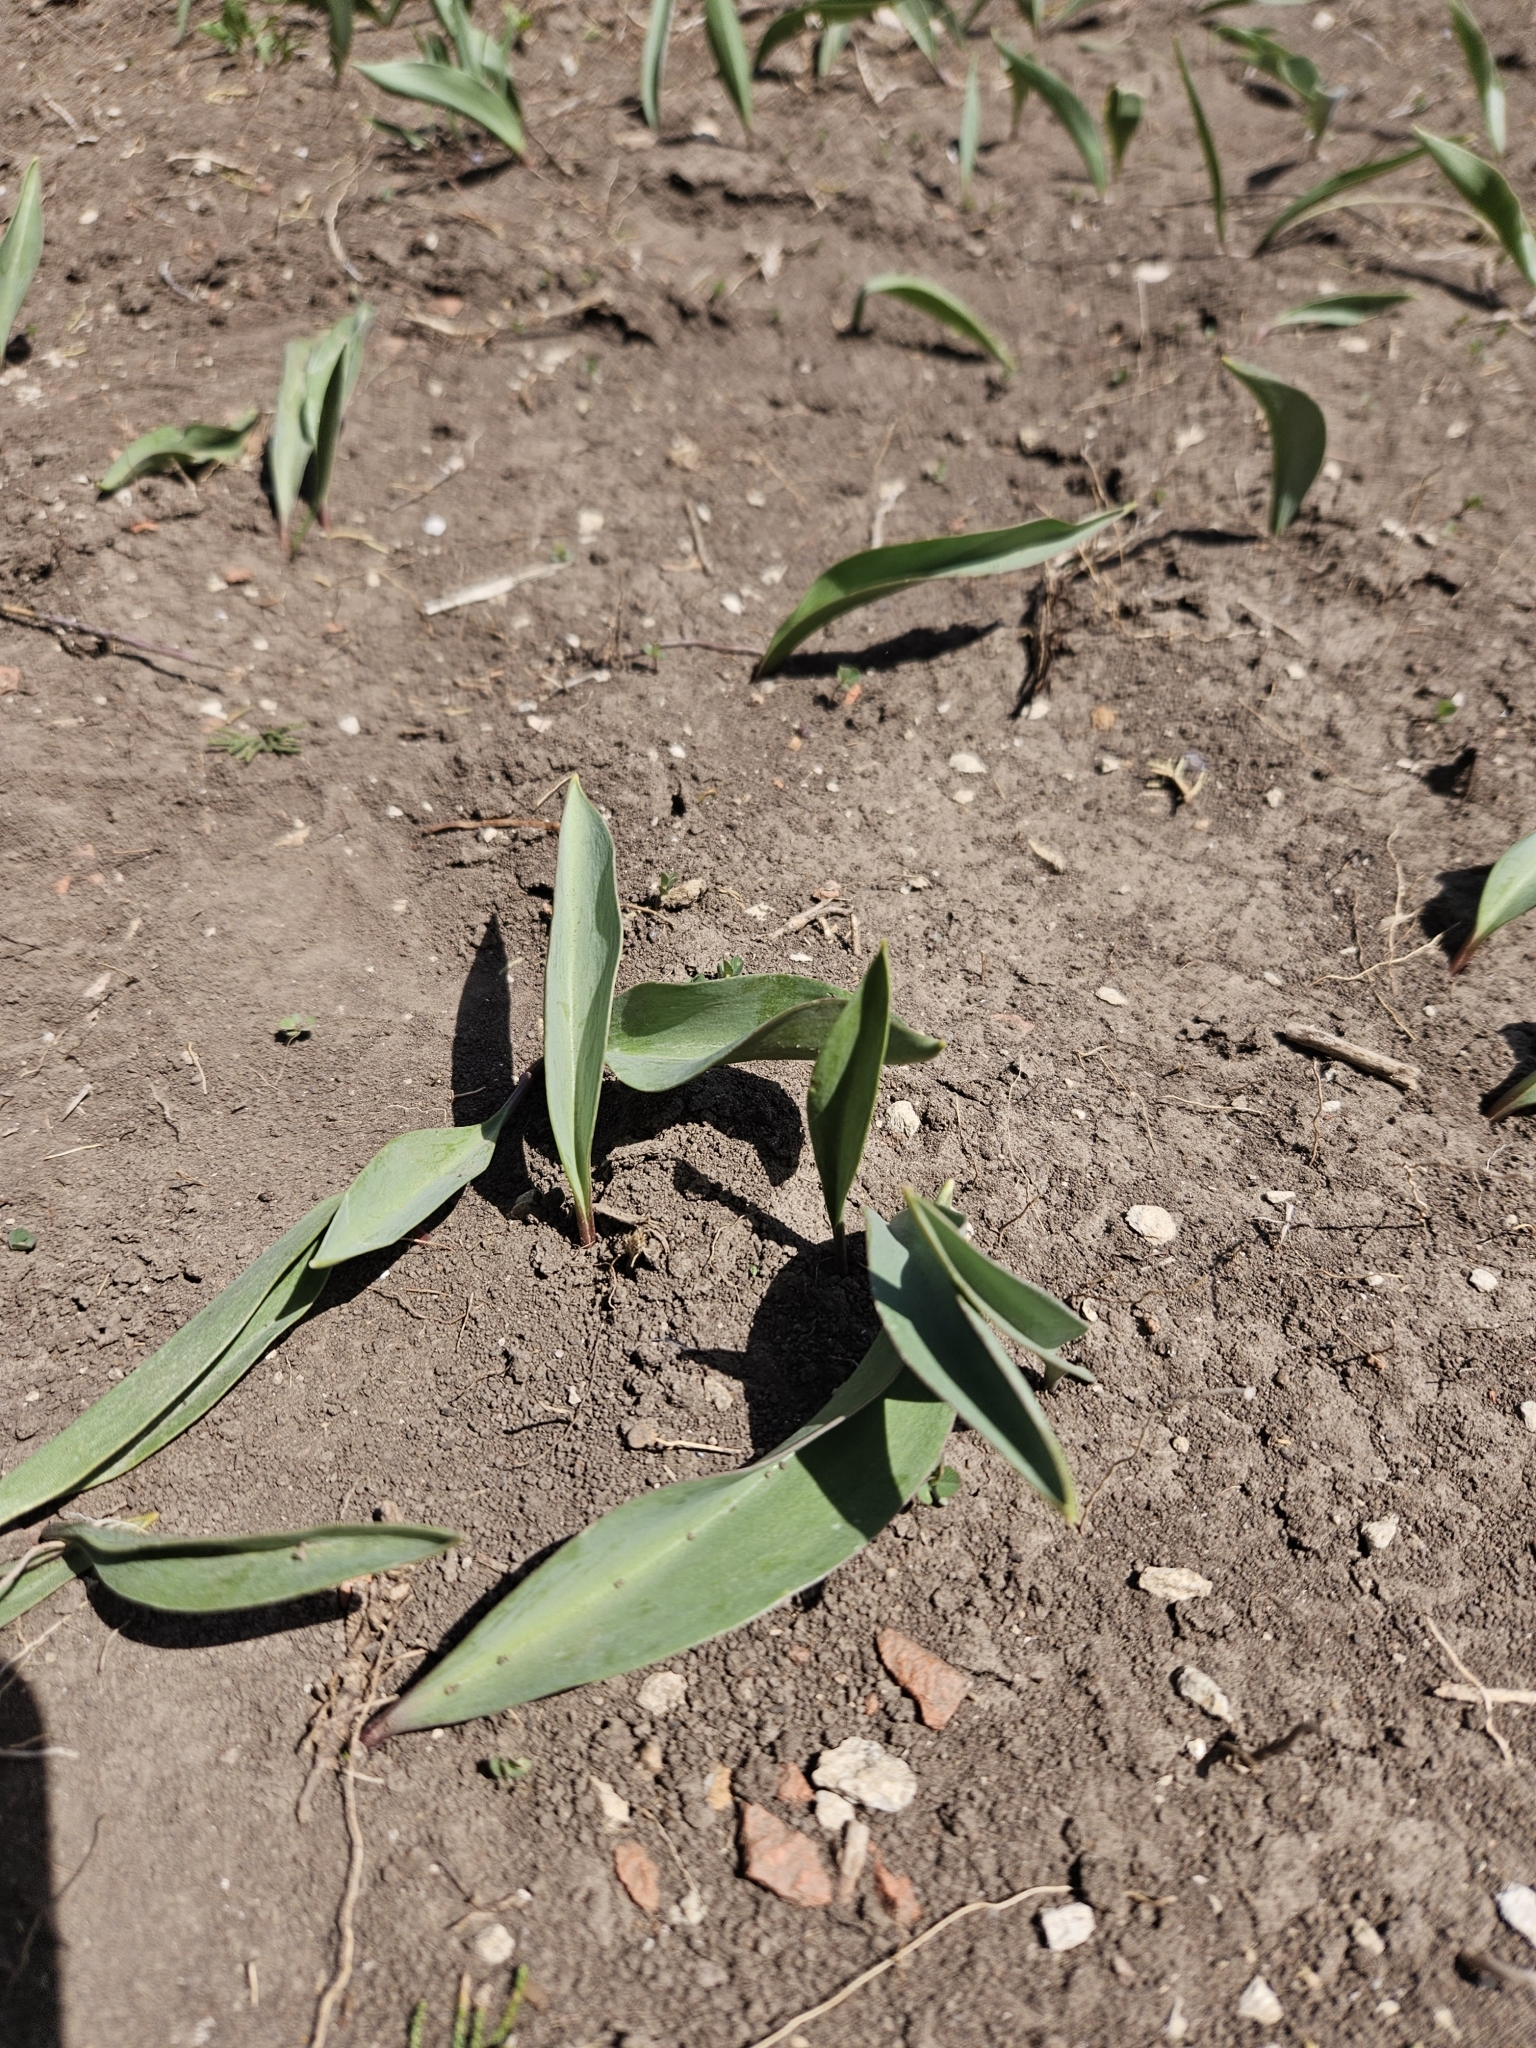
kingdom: Plantae
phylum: Tracheophyta
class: Liliopsida
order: Liliales
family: Liliaceae
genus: Erythronium
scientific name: Erythronium mesochoreum
